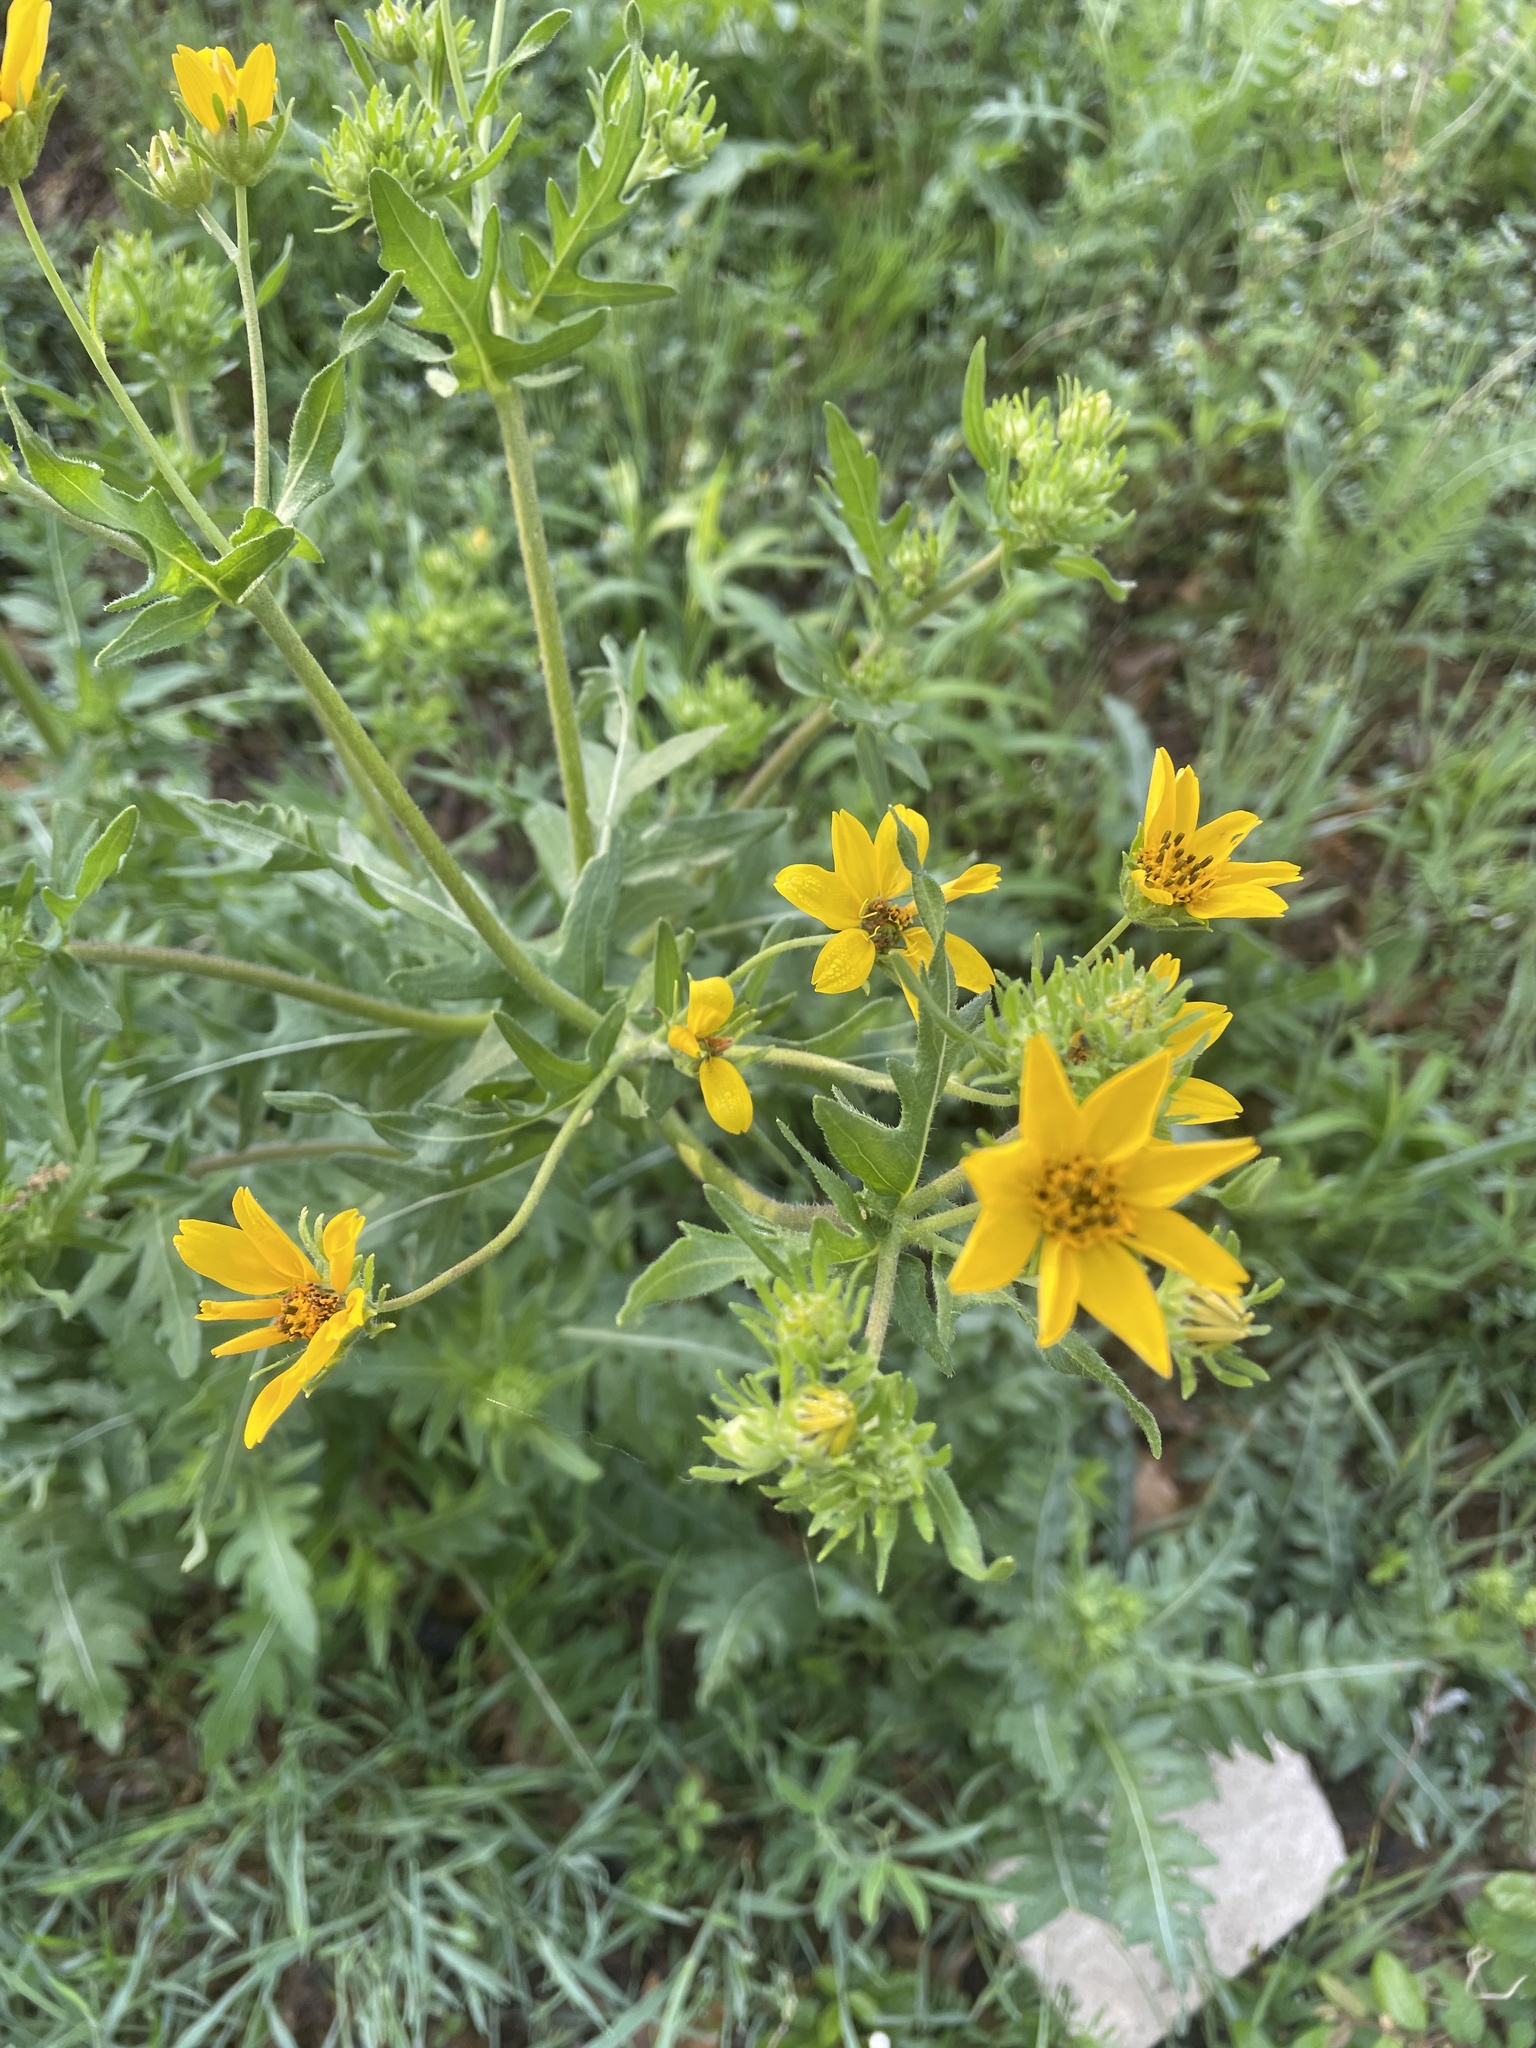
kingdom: Plantae
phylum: Tracheophyta
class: Magnoliopsida
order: Asterales
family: Asteraceae
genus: Engelmannia
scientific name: Engelmannia peristenia
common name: Engelmann's daisy
